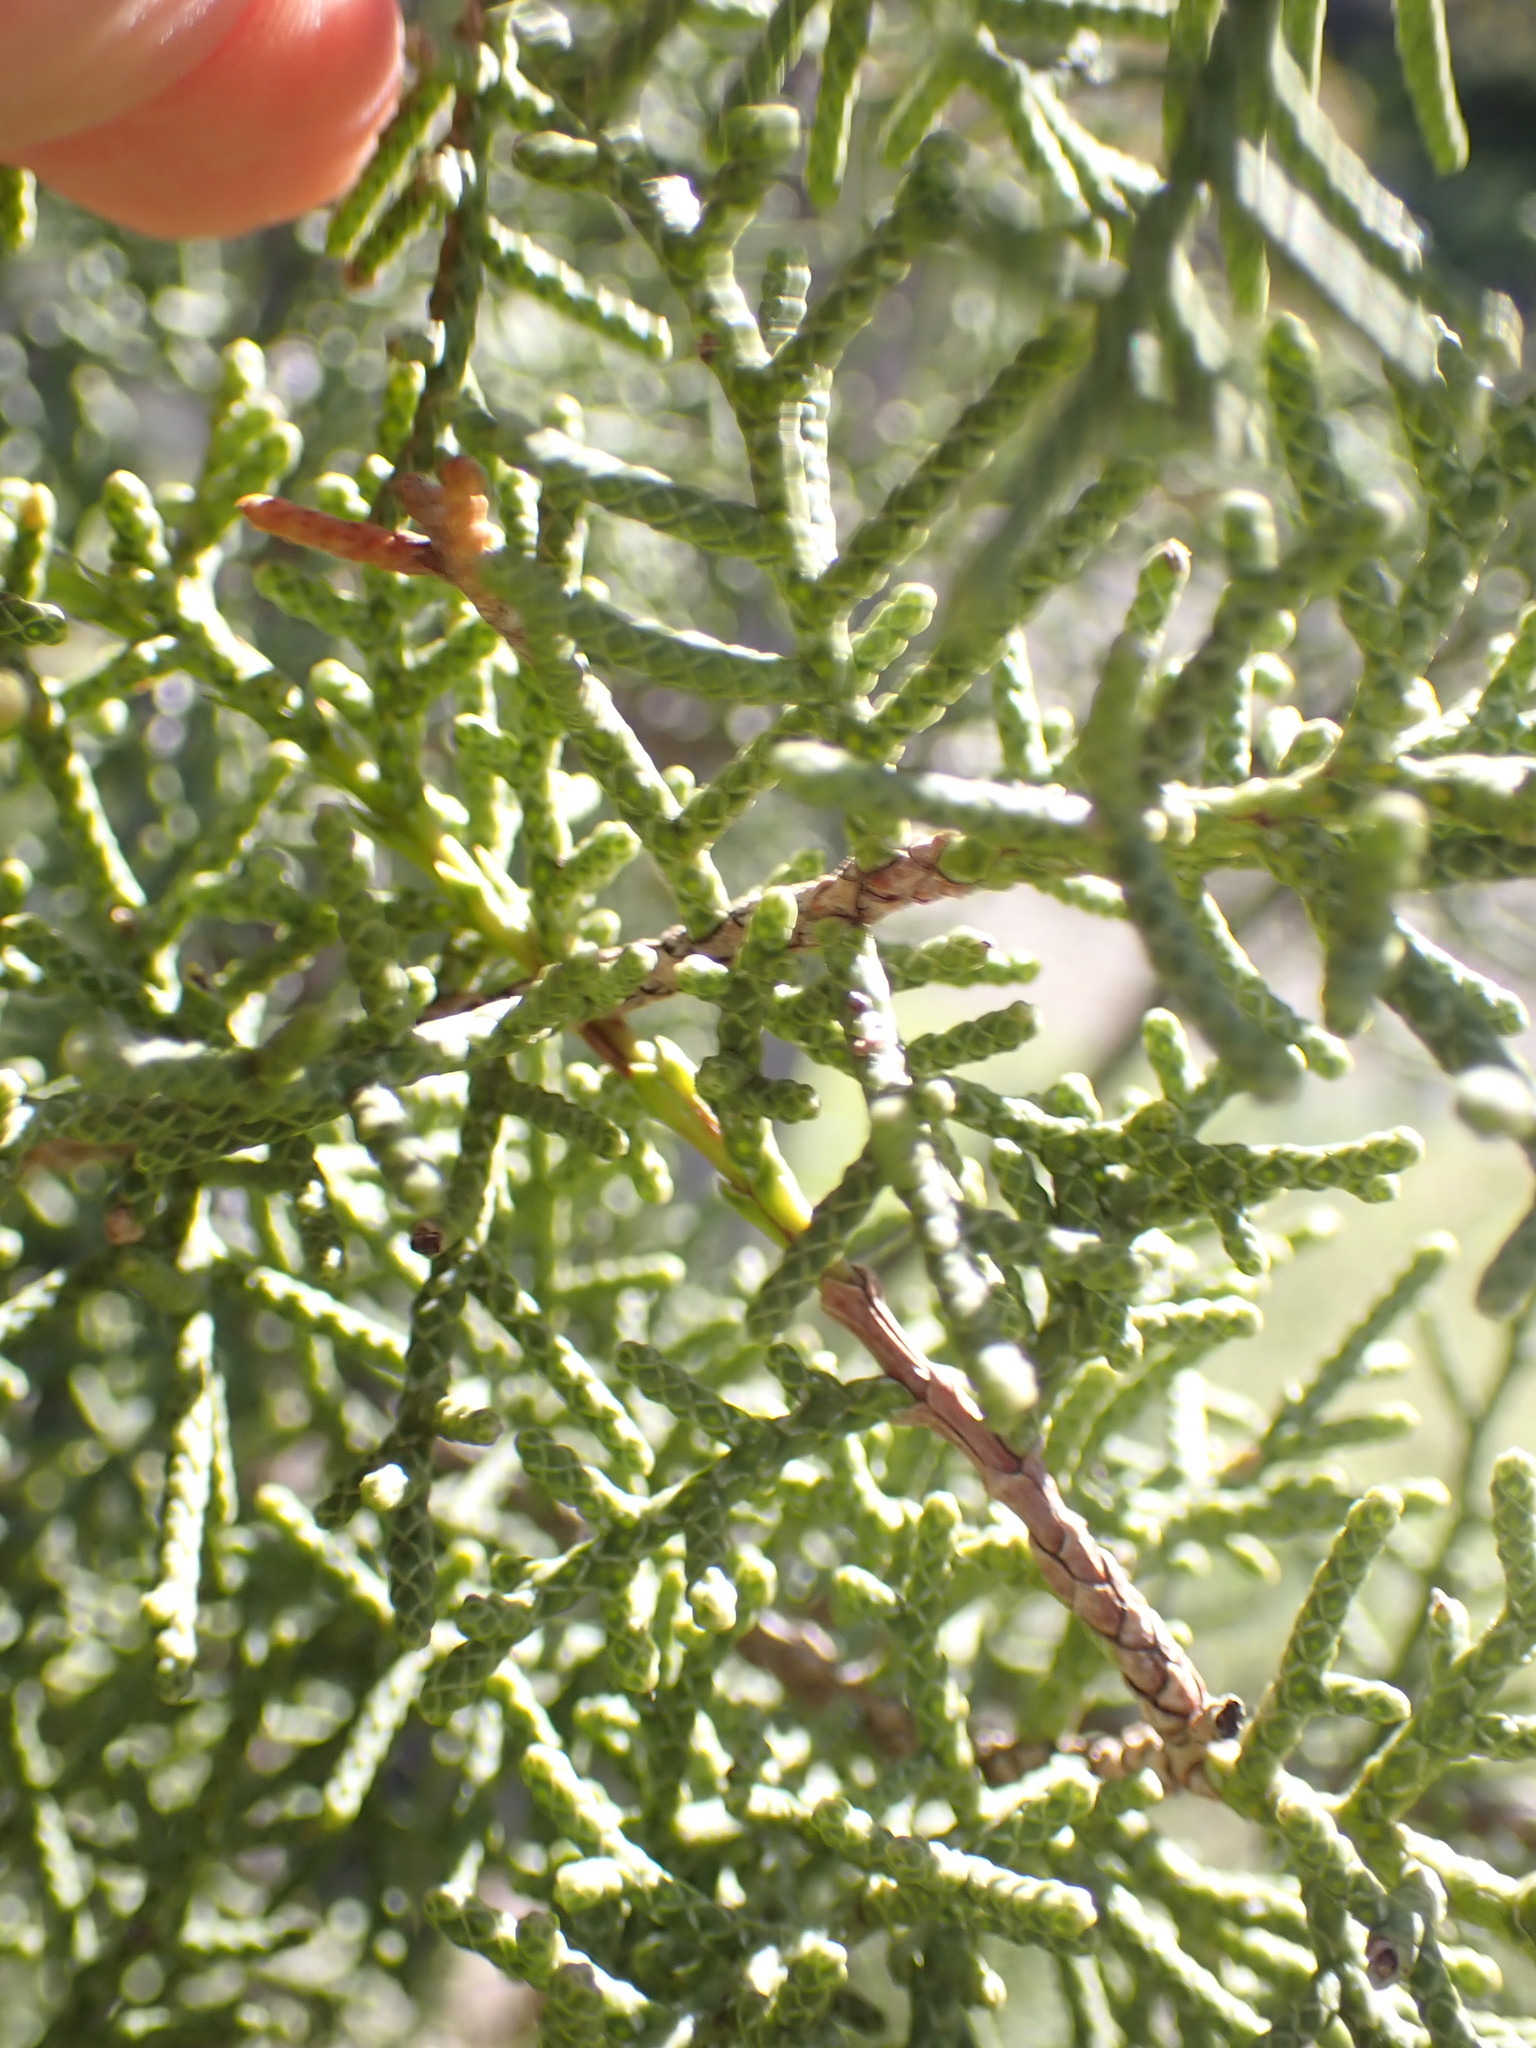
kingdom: Plantae
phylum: Tracheophyta
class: Pinopsida
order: Pinales
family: Cupressaceae
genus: Juniperus
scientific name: Juniperus californica
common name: California juniper
